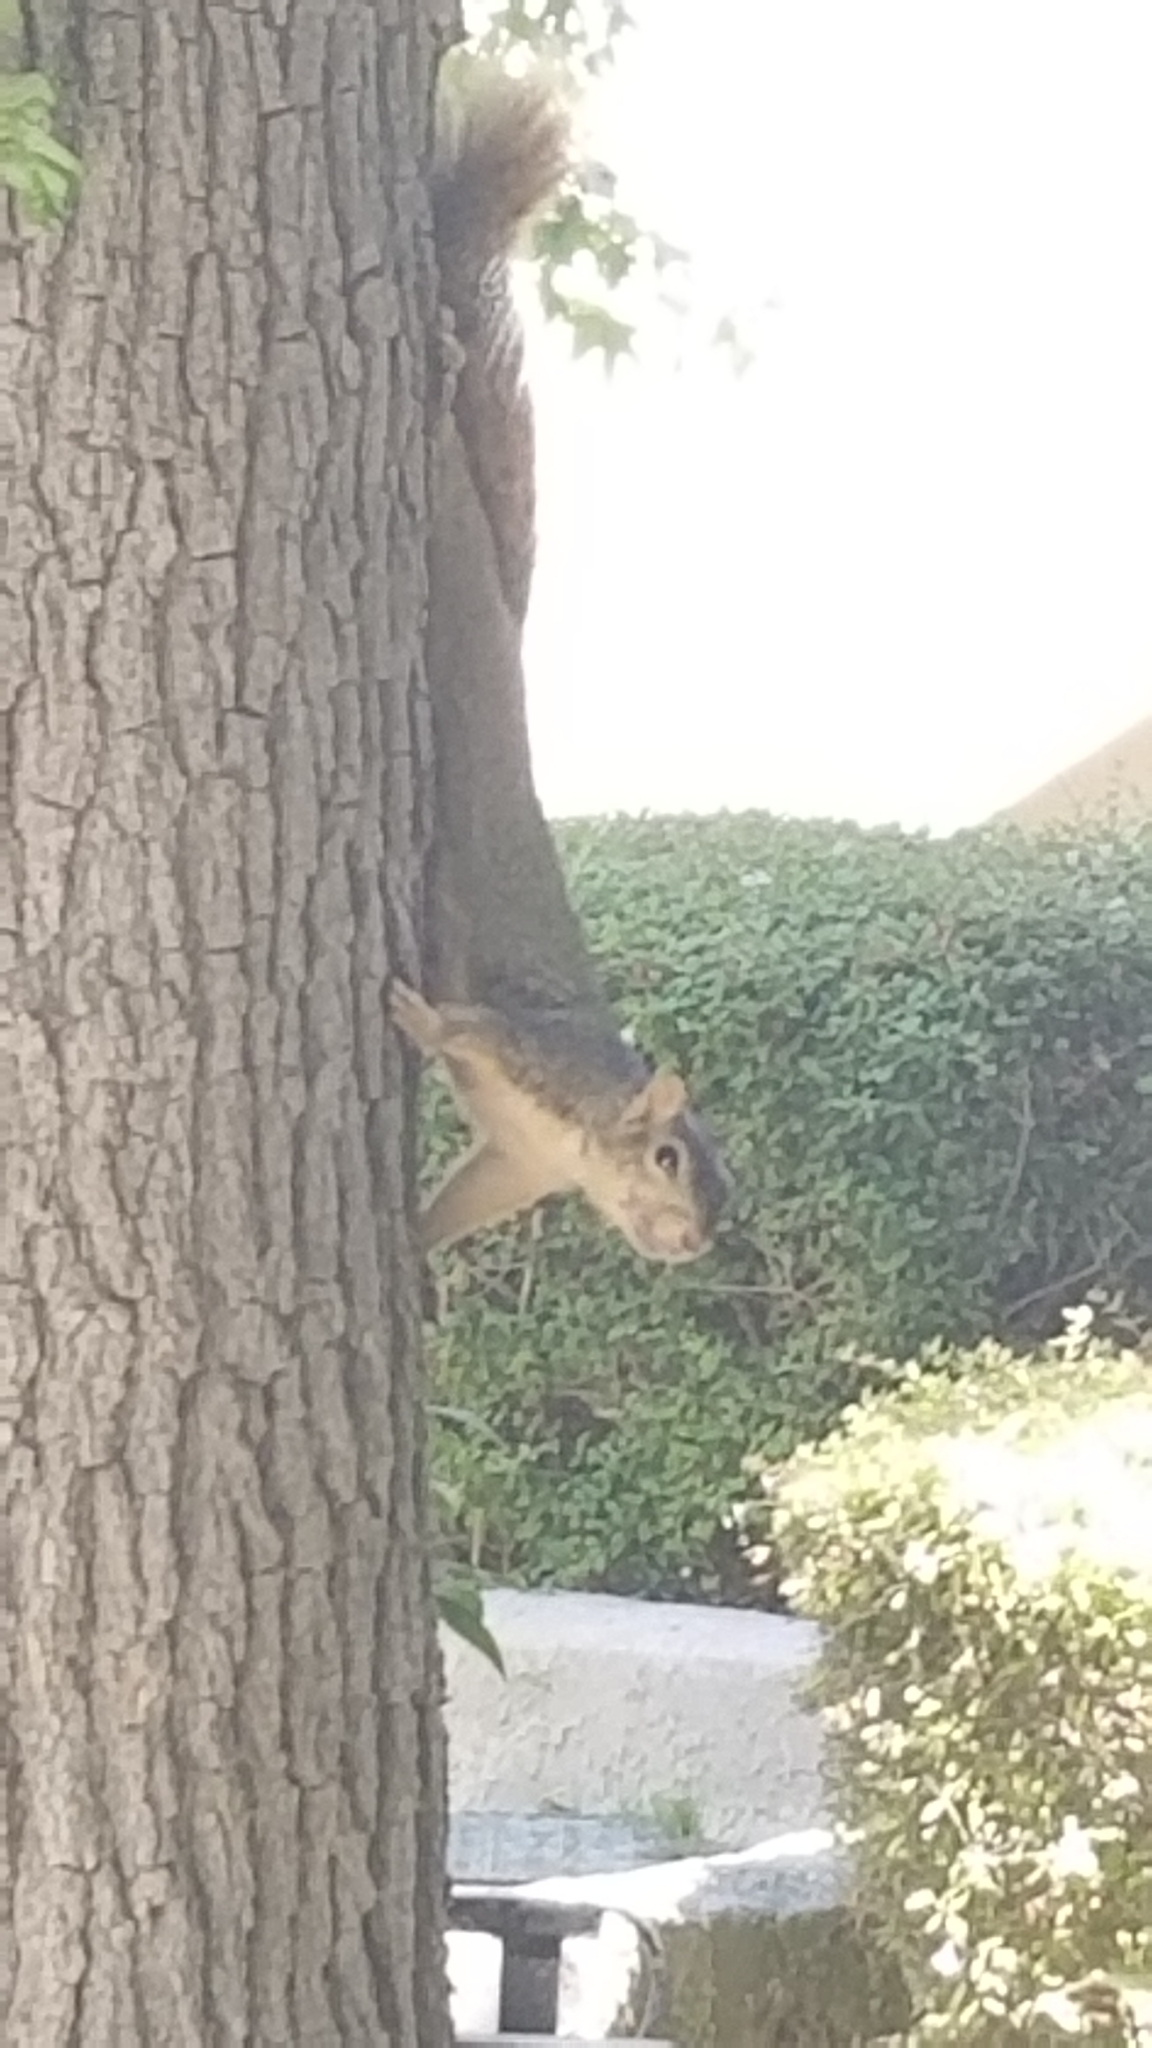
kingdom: Animalia
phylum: Chordata
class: Mammalia
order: Rodentia
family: Sciuridae
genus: Sciurus
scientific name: Sciurus niger
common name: Fox squirrel
